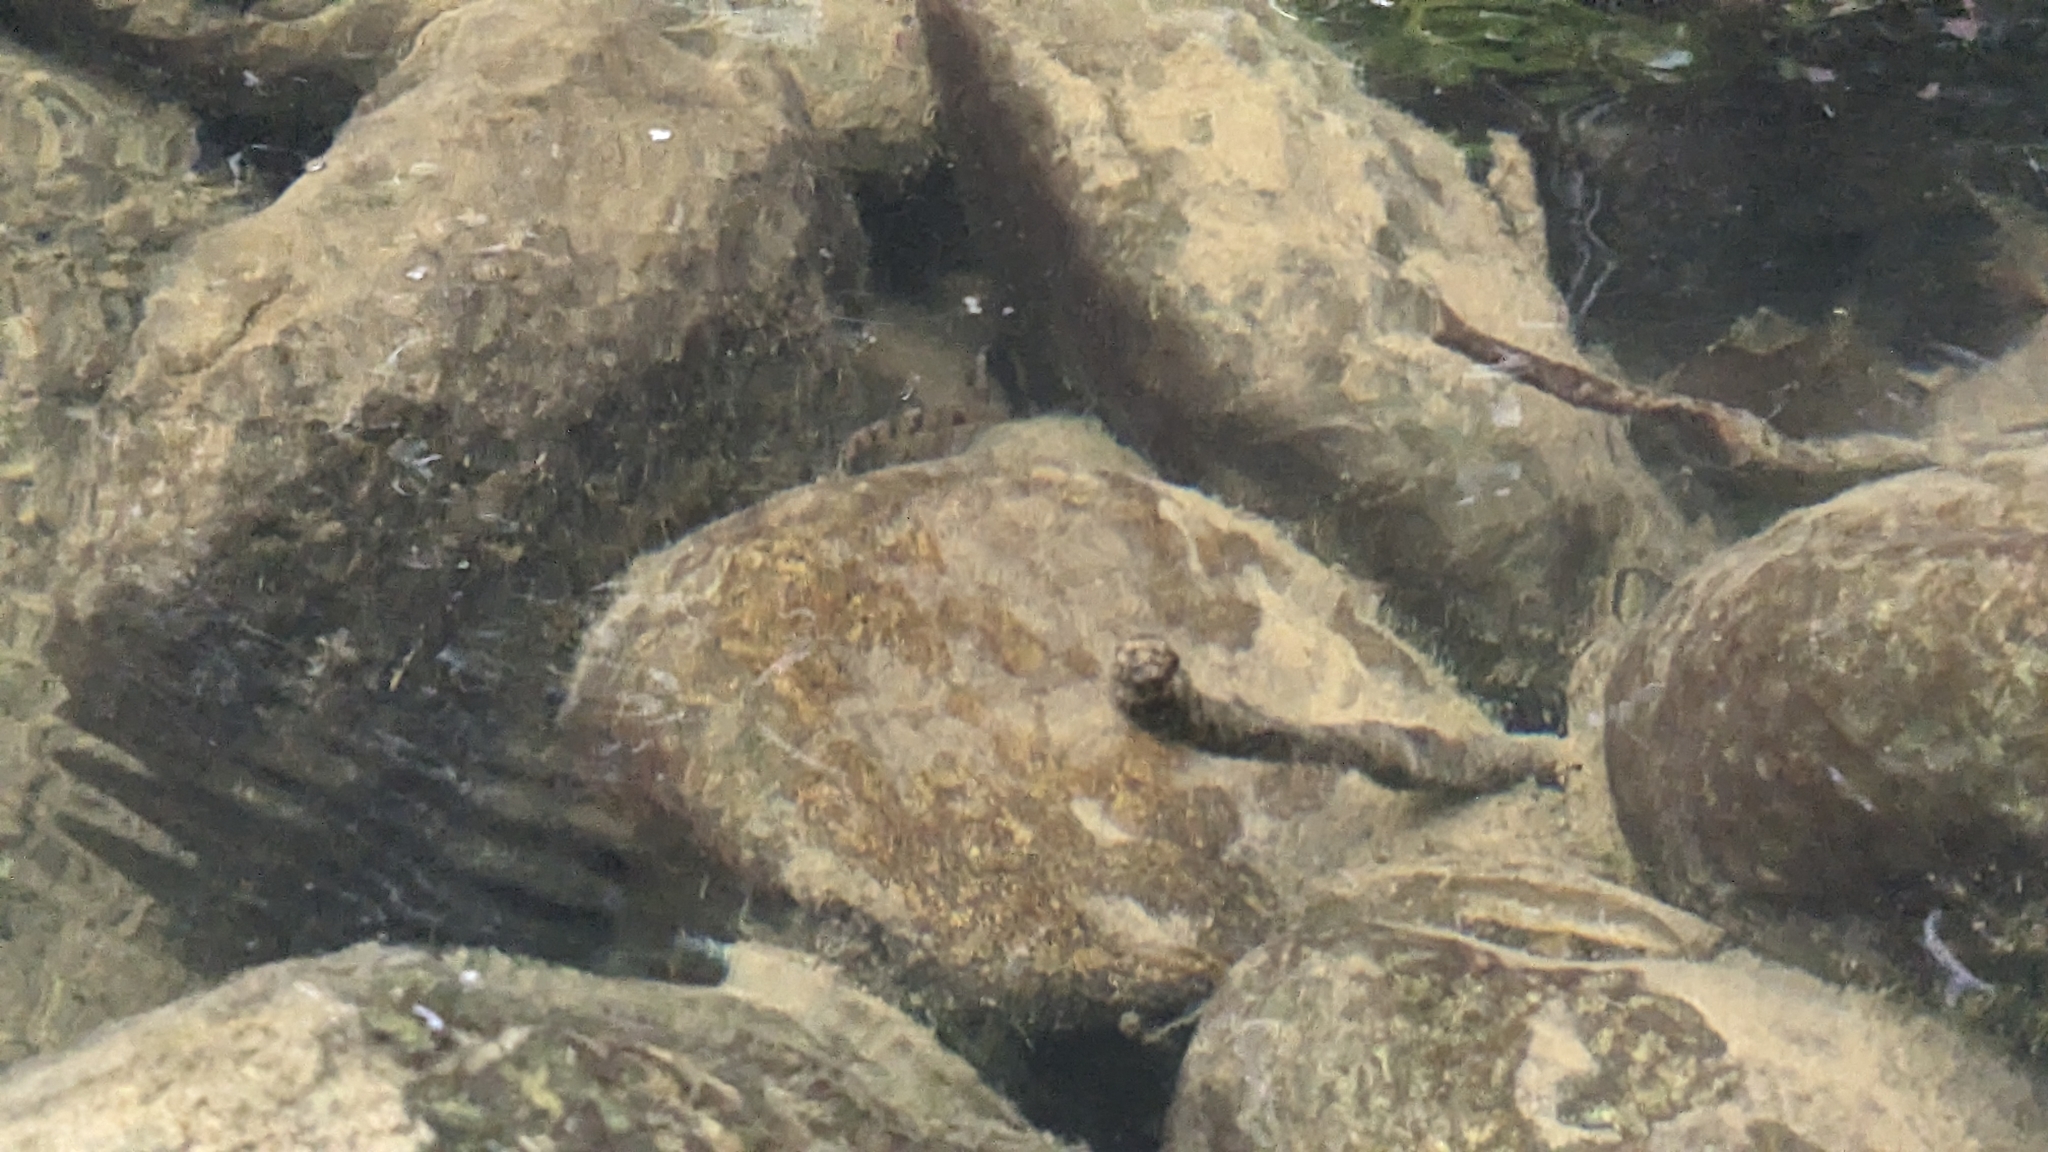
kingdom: Animalia
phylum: Chordata
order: Cypriniformes
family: Cyprinidae
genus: Acrossocheilus
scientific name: Acrossocheilus paradoxus
